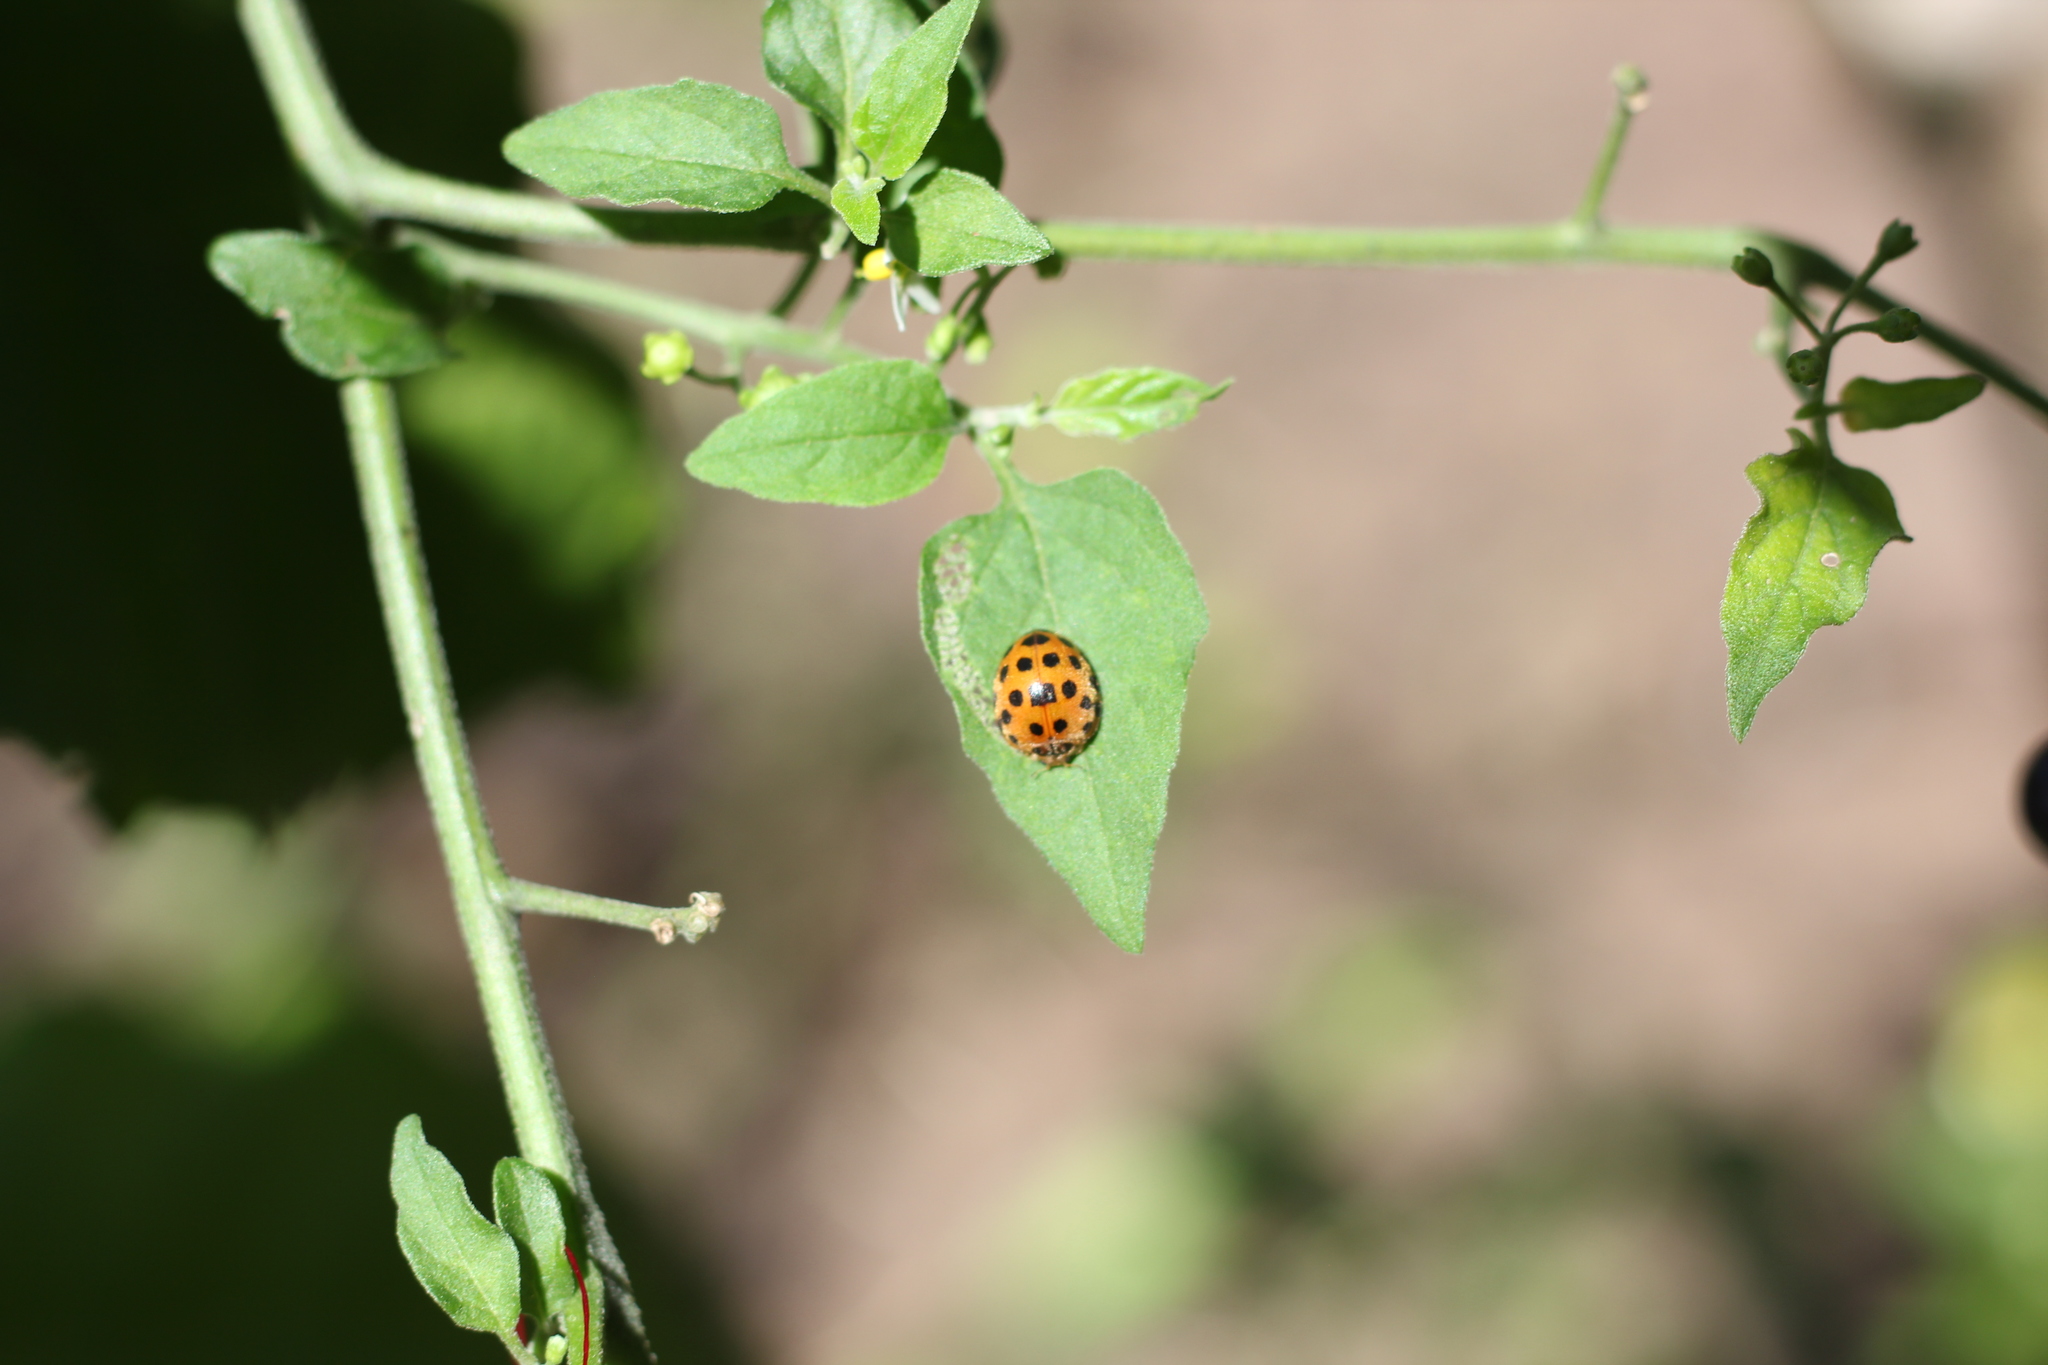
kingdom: Animalia
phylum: Arthropoda
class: Insecta
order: Coleoptera
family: Coccinellidae
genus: Henosepilachna
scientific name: Henosepilachna vigintioctopunctata
